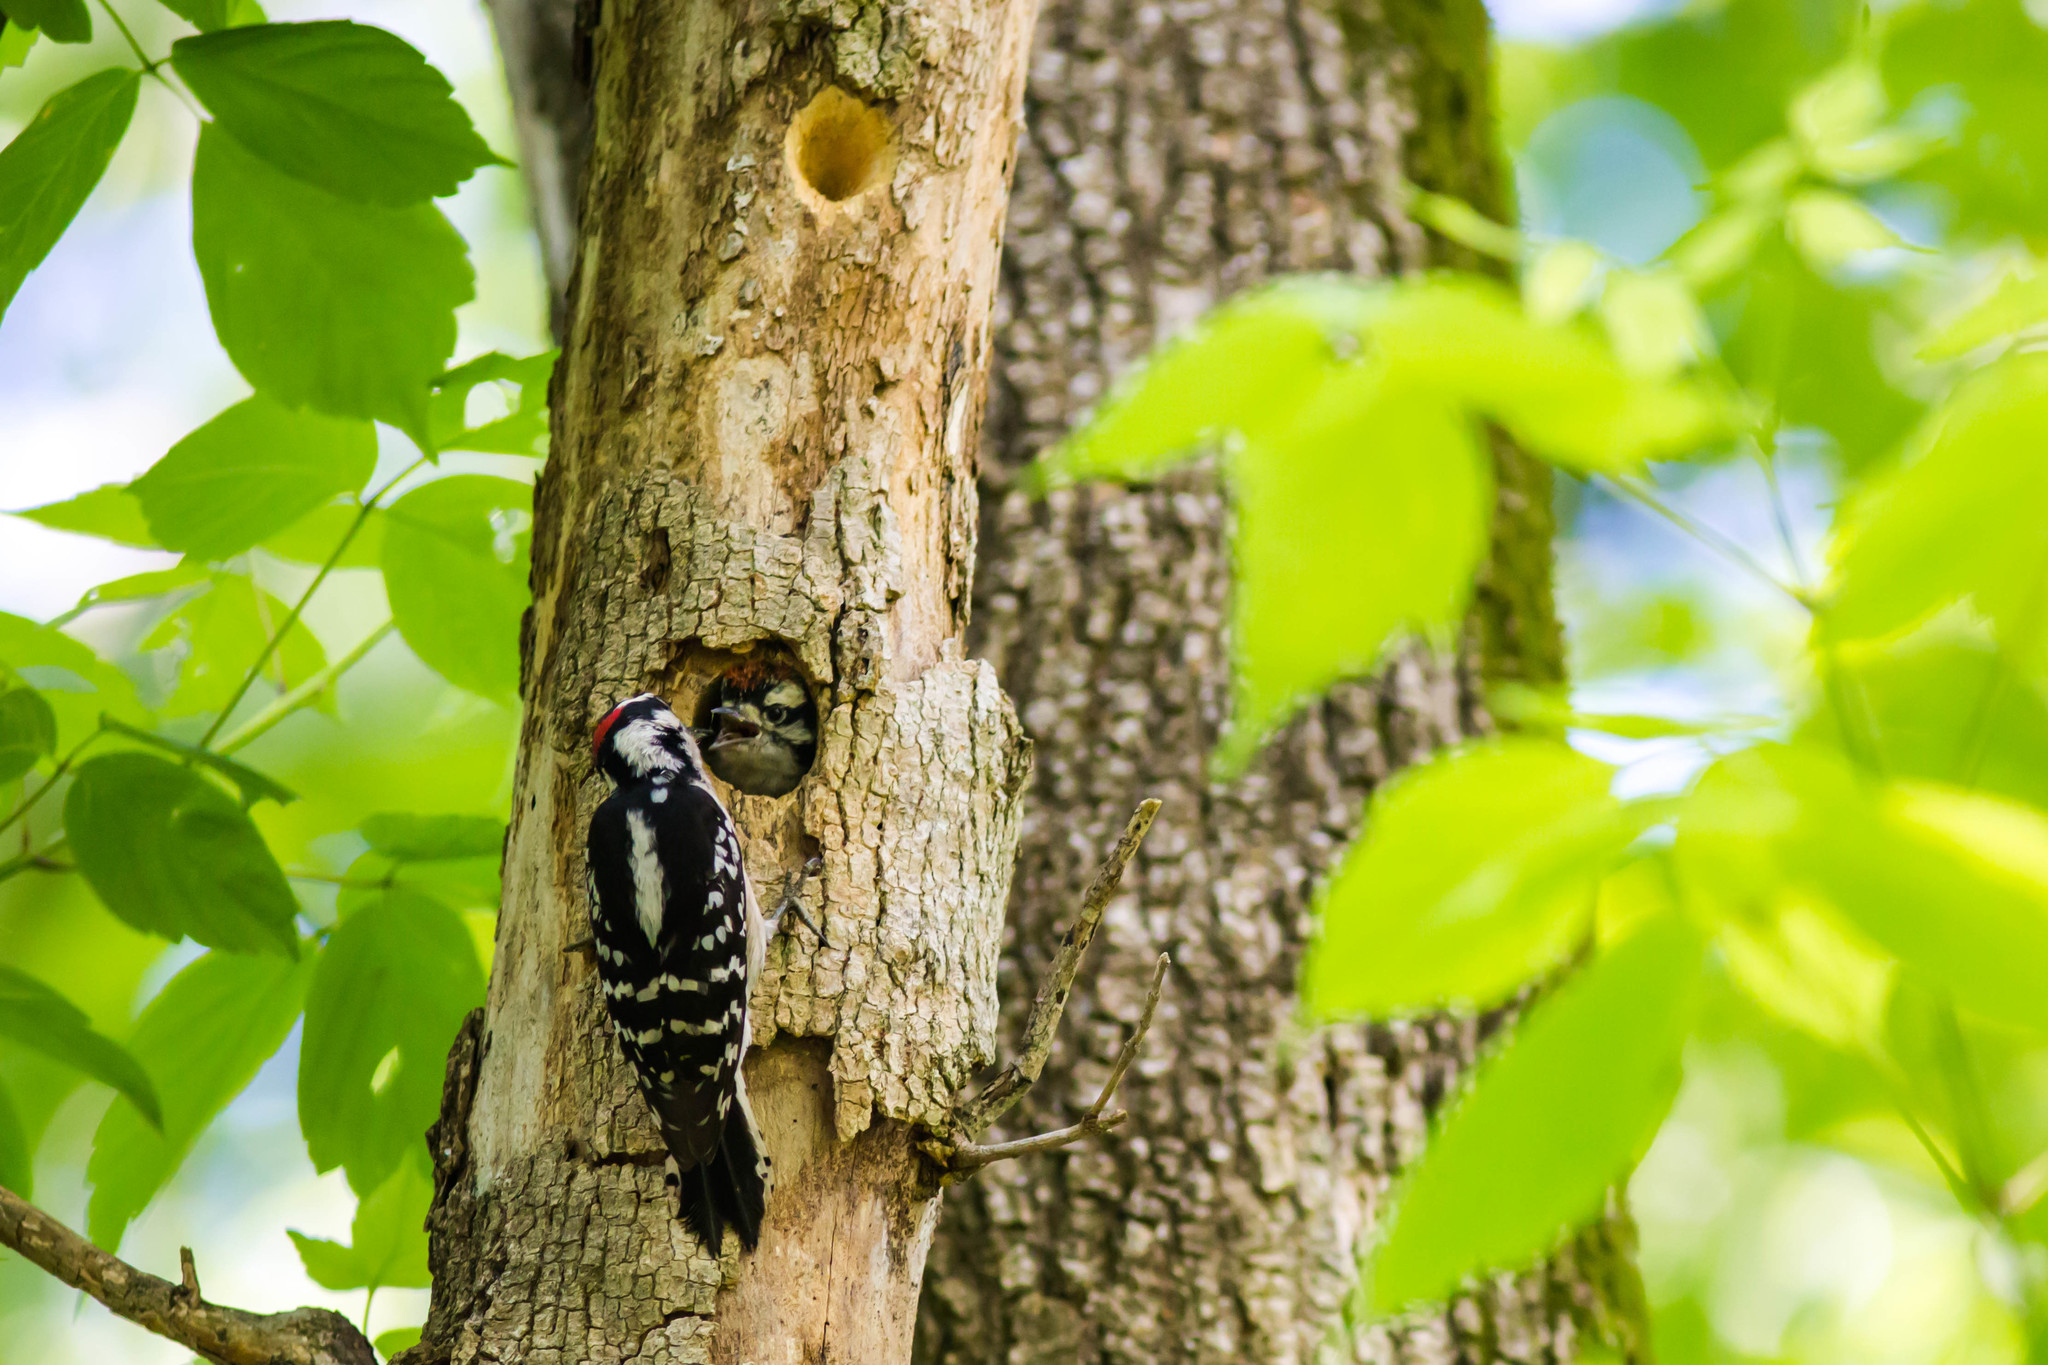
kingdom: Animalia
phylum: Chordata
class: Aves
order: Piciformes
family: Picidae
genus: Leuconotopicus
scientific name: Leuconotopicus villosus
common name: Hairy woodpecker
